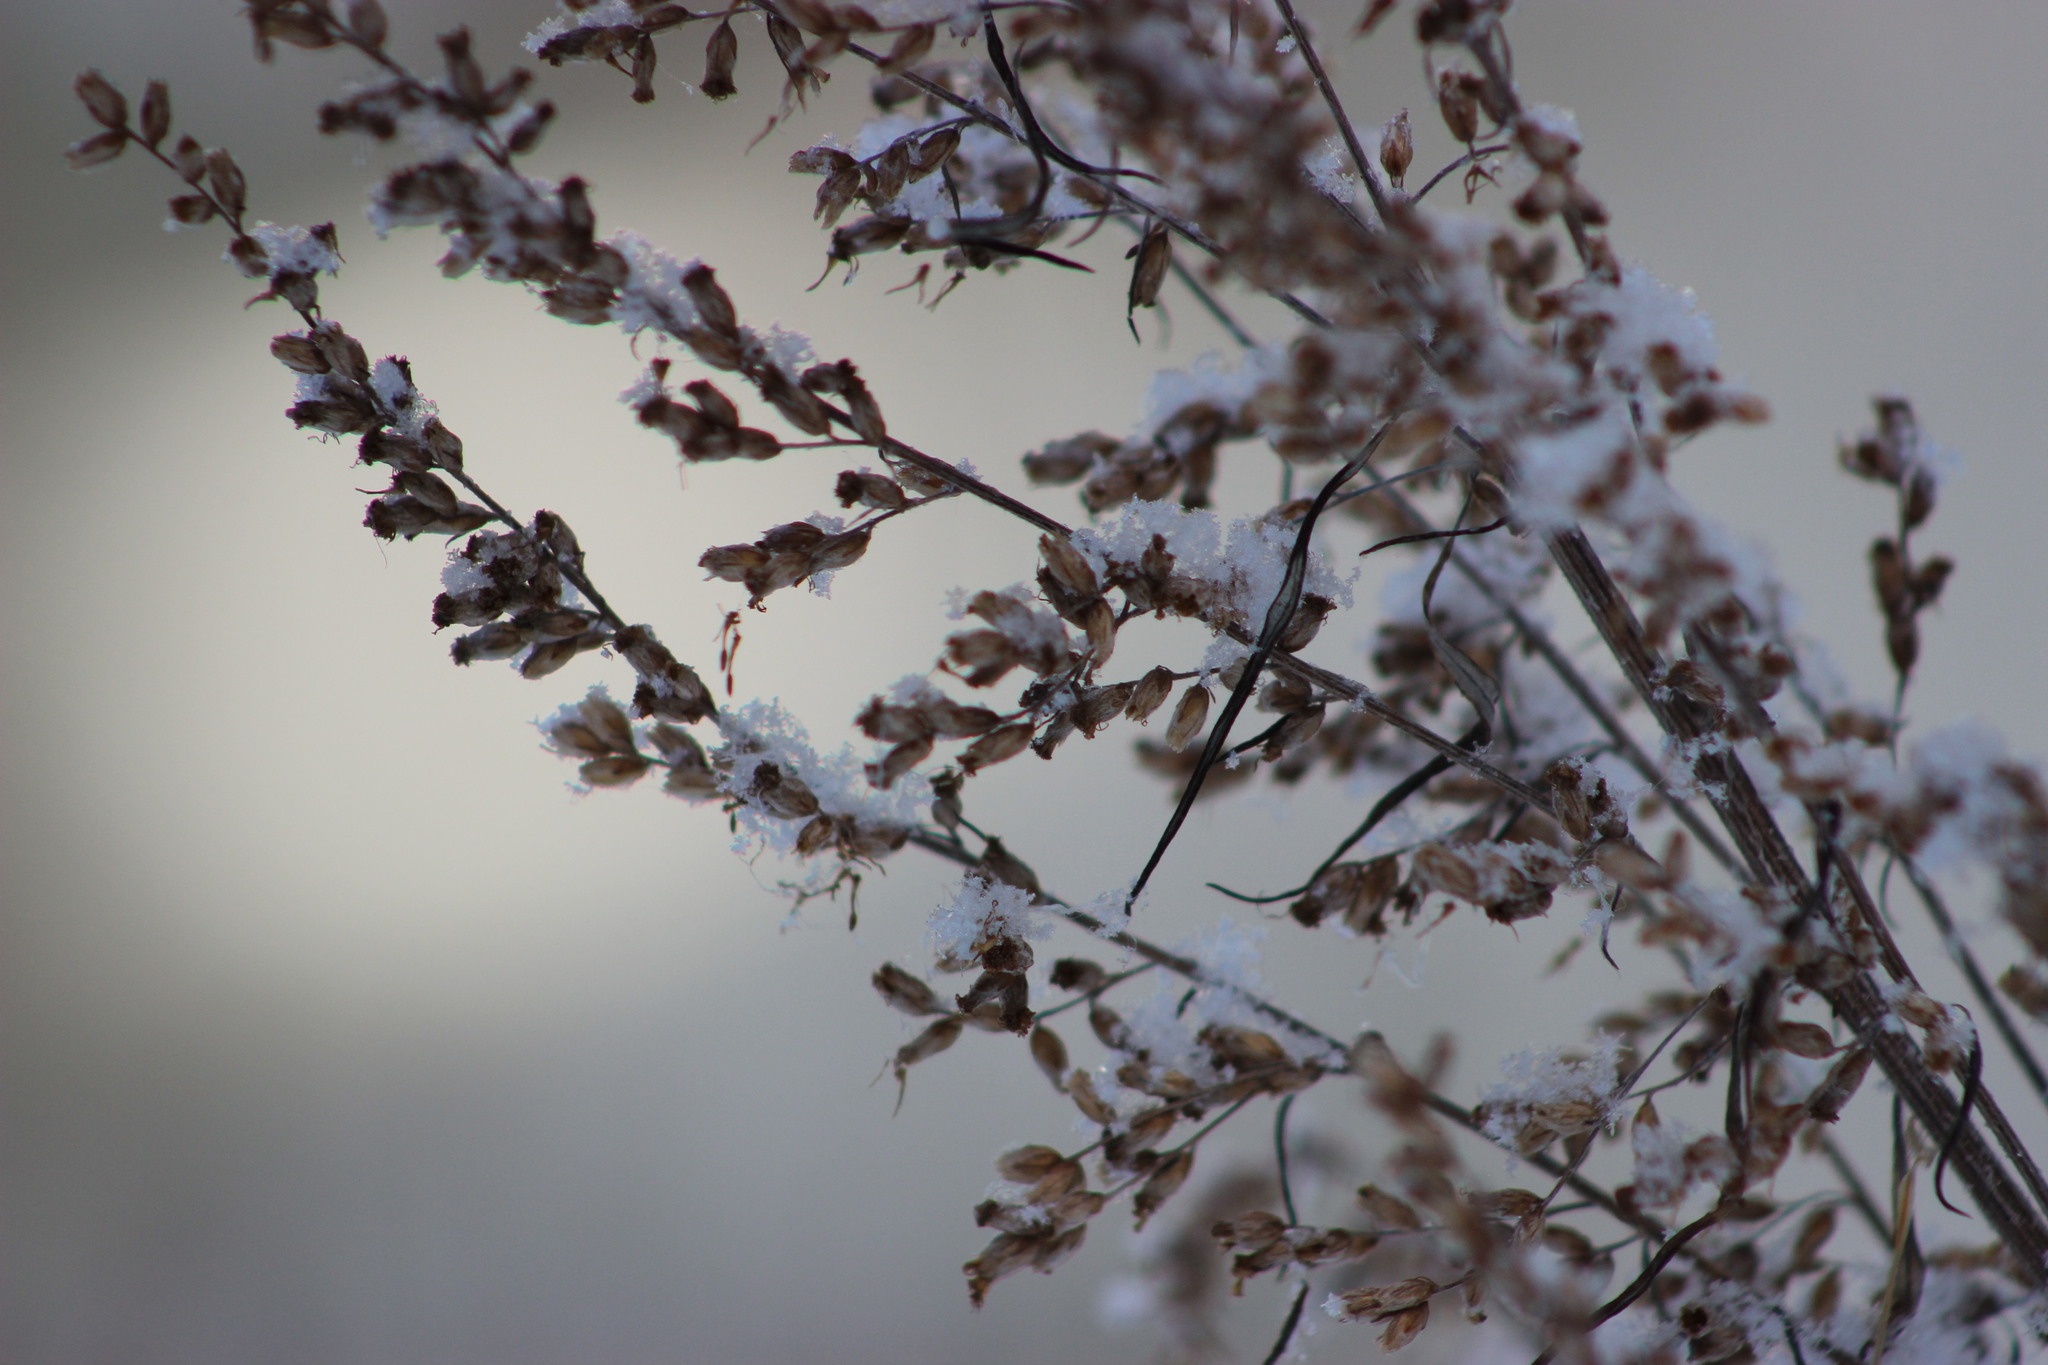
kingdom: Plantae
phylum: Tracheophyta
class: Magnoliopsida
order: Asterales
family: Asteraceae
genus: Artemisia
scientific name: Artemisia vulgaris
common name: Mugwort
